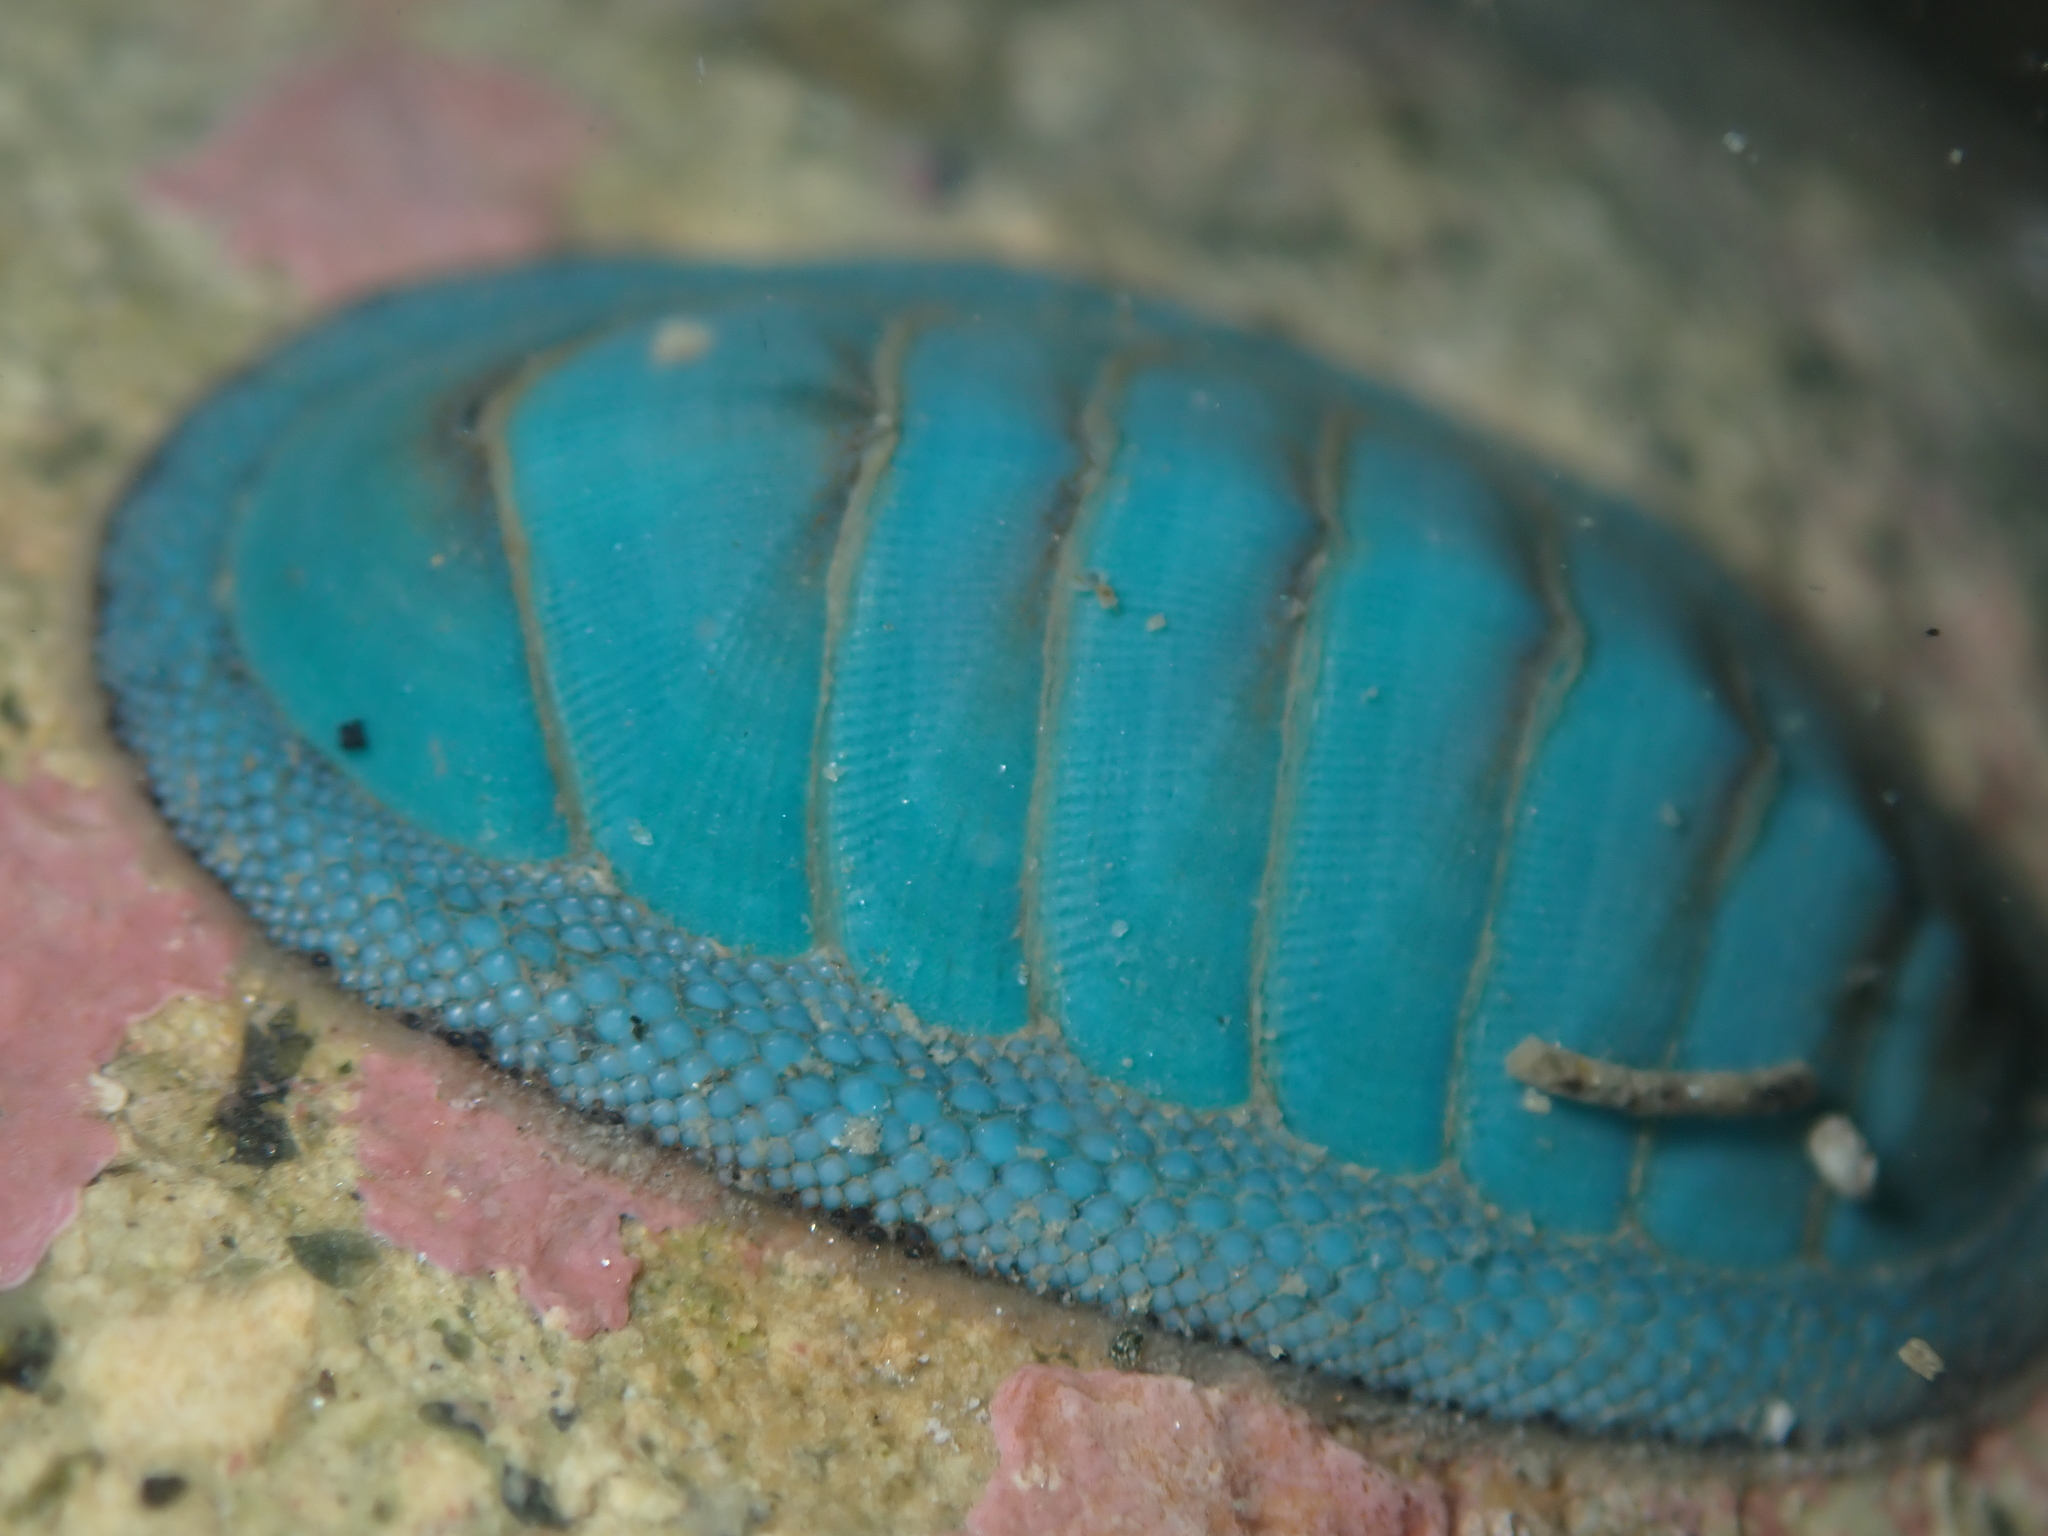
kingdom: Animalia
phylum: Mollusca
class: Polyplacophora
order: Chitonida
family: Chitonidae
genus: Chiton
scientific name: Chiton glaucus
